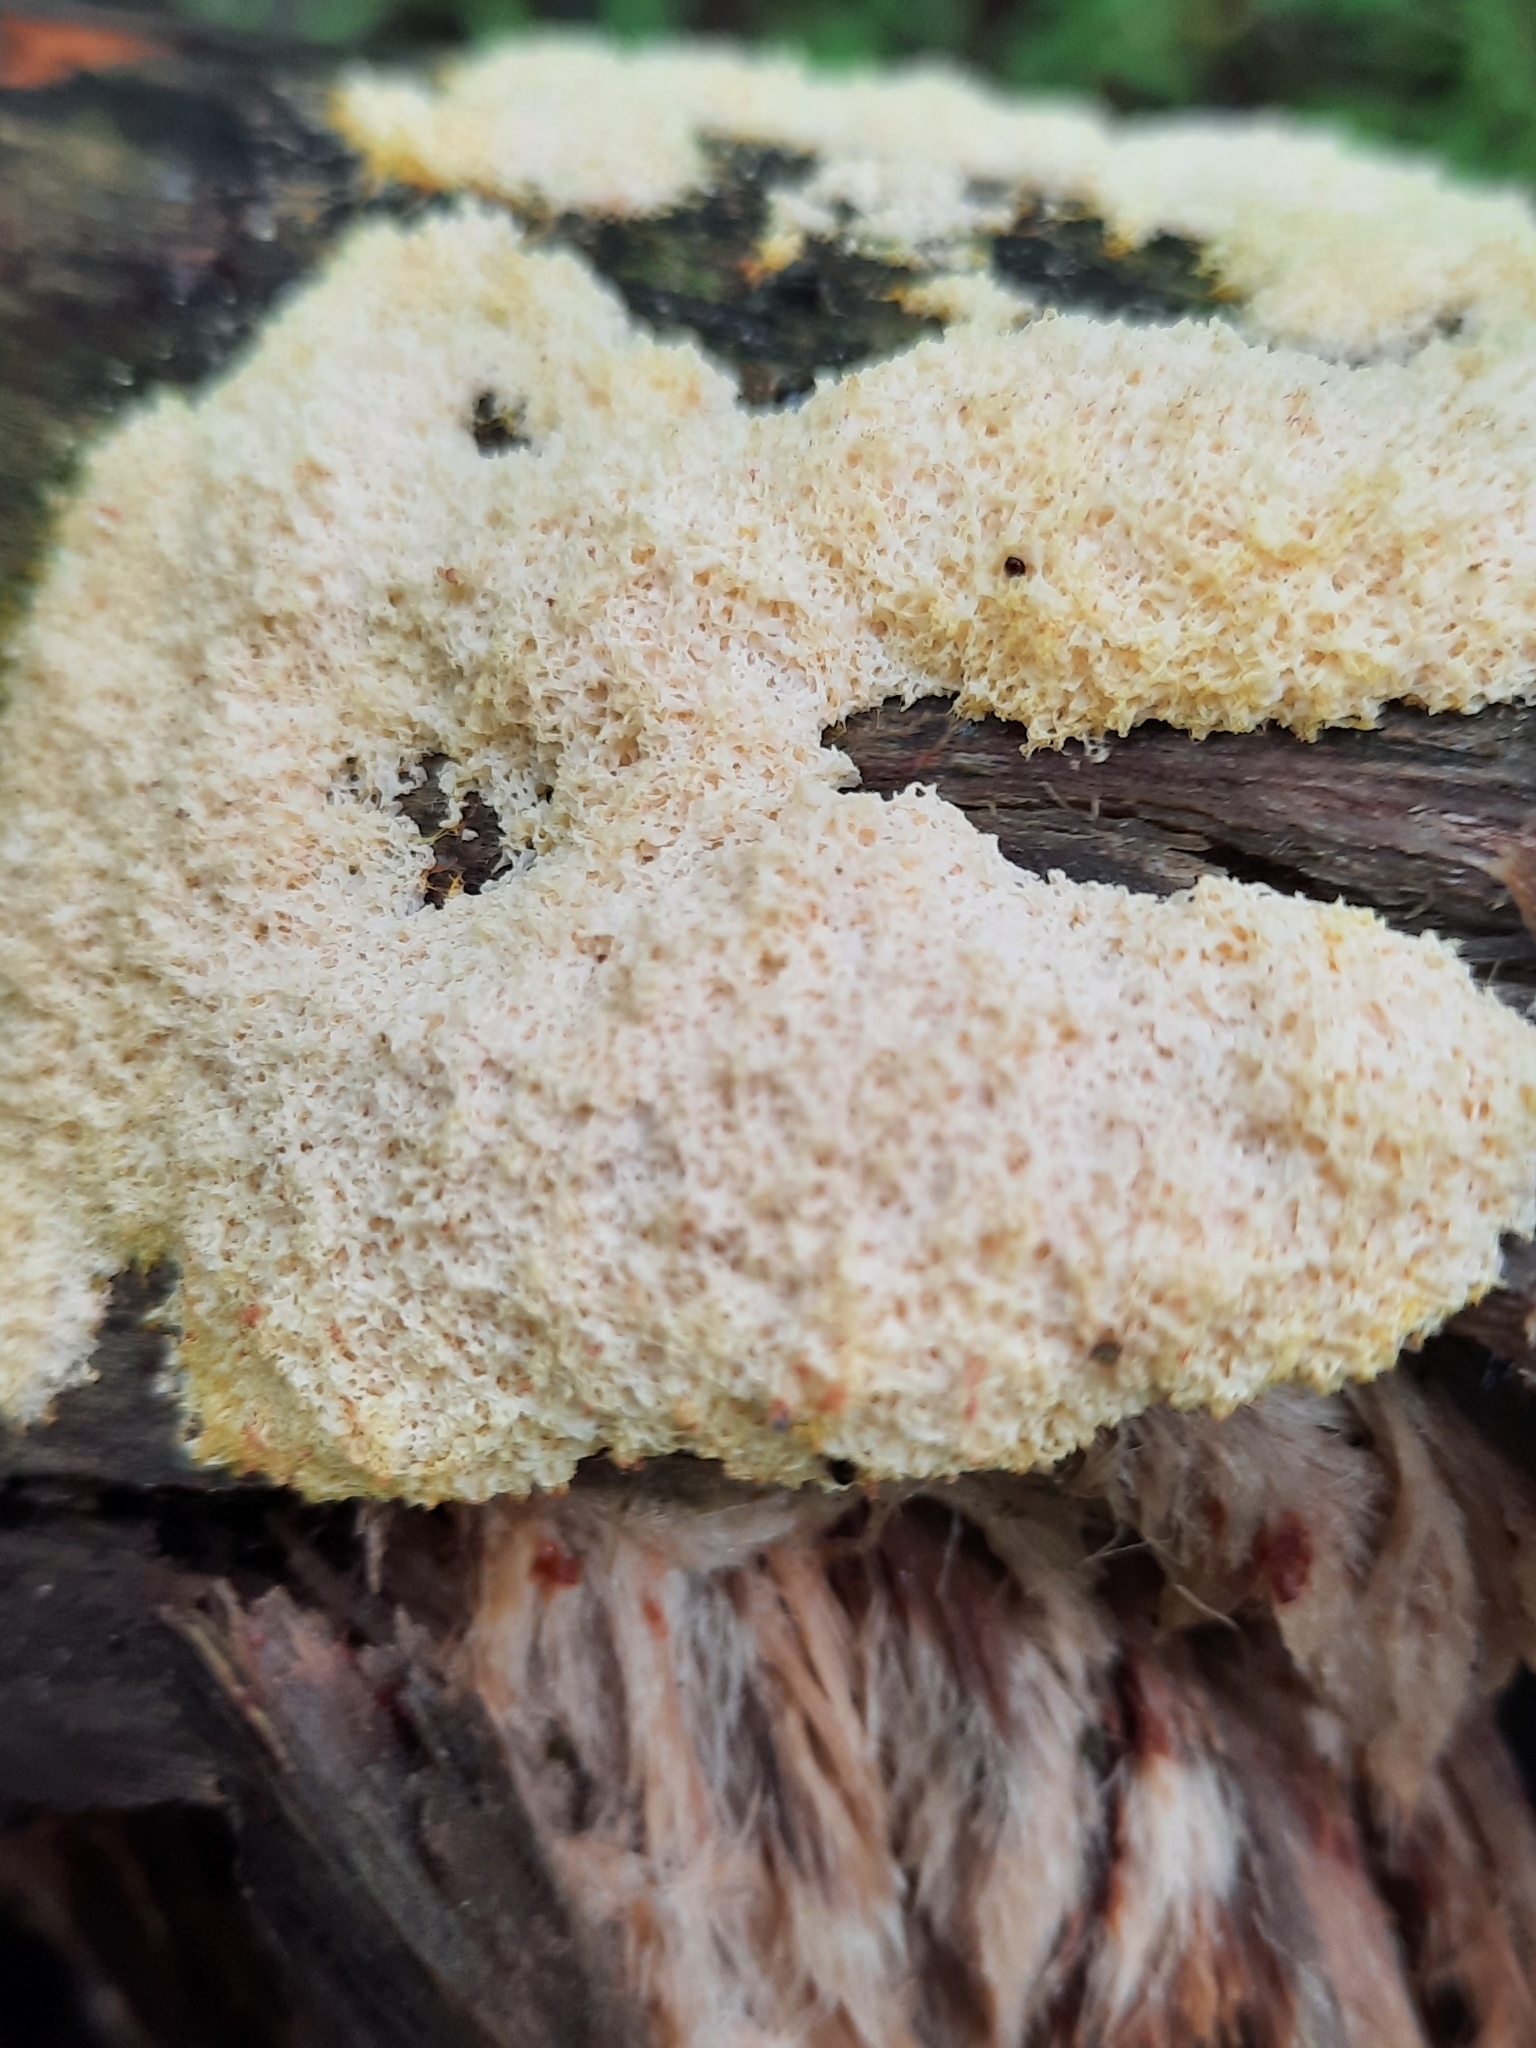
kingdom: Protozoa
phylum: Mycetozoa
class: Myxomycetes
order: Physarales
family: Physaraceae
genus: Fuligo
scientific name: Fuligo septica
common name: Dog vomit slime mold
